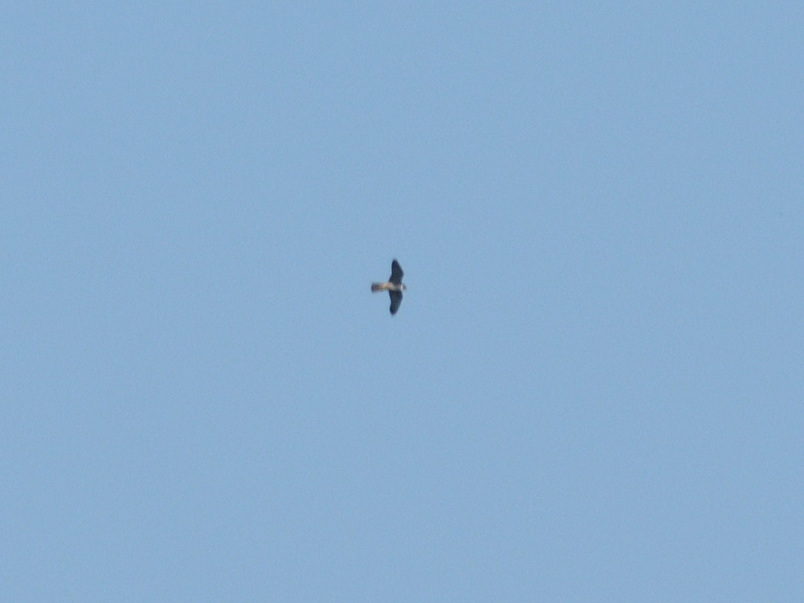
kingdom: Animalia
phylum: Chordata
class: Aves
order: Falconiformes
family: Falconidae
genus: Falco
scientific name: Falco subbuteo
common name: Eurasian hobby
